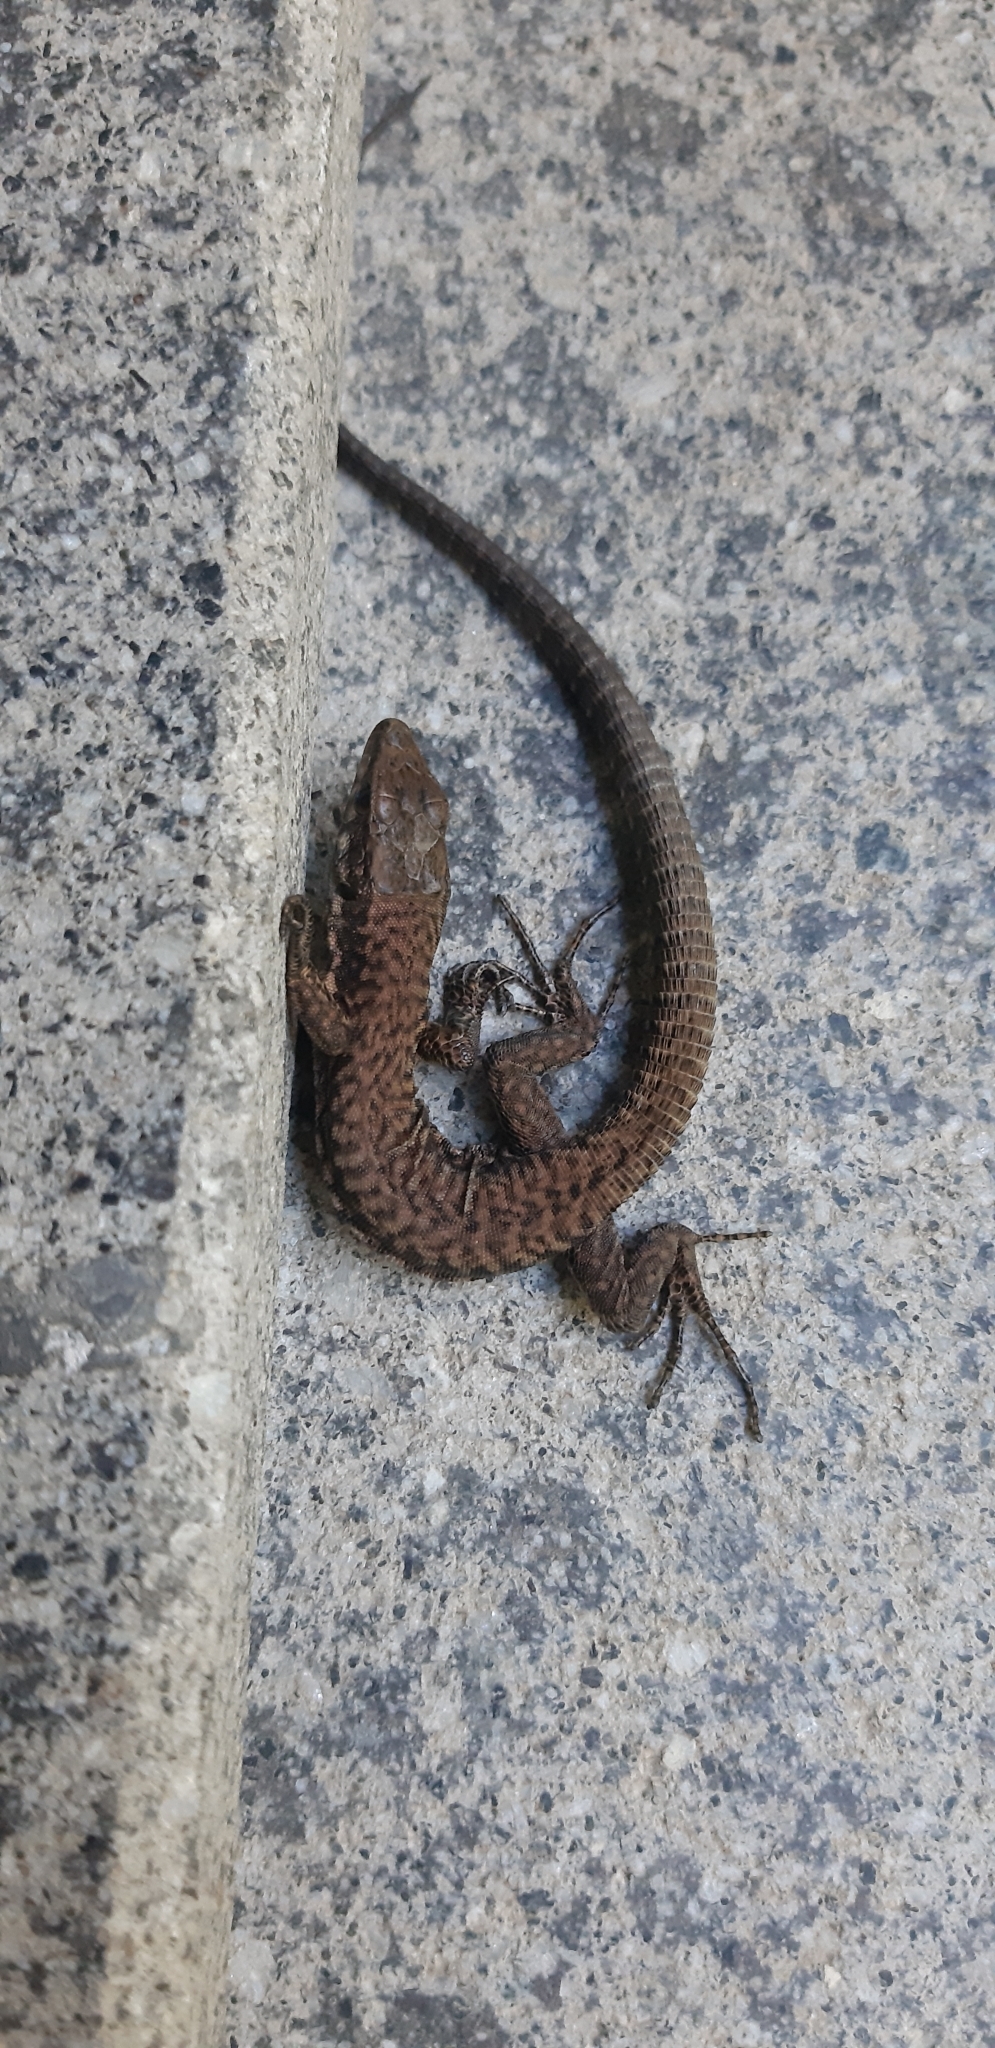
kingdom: Animalia
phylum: Chordata
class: Squamata
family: Lacertidae
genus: Podarcis
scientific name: Podarcis muralis
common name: Common wall lizard
